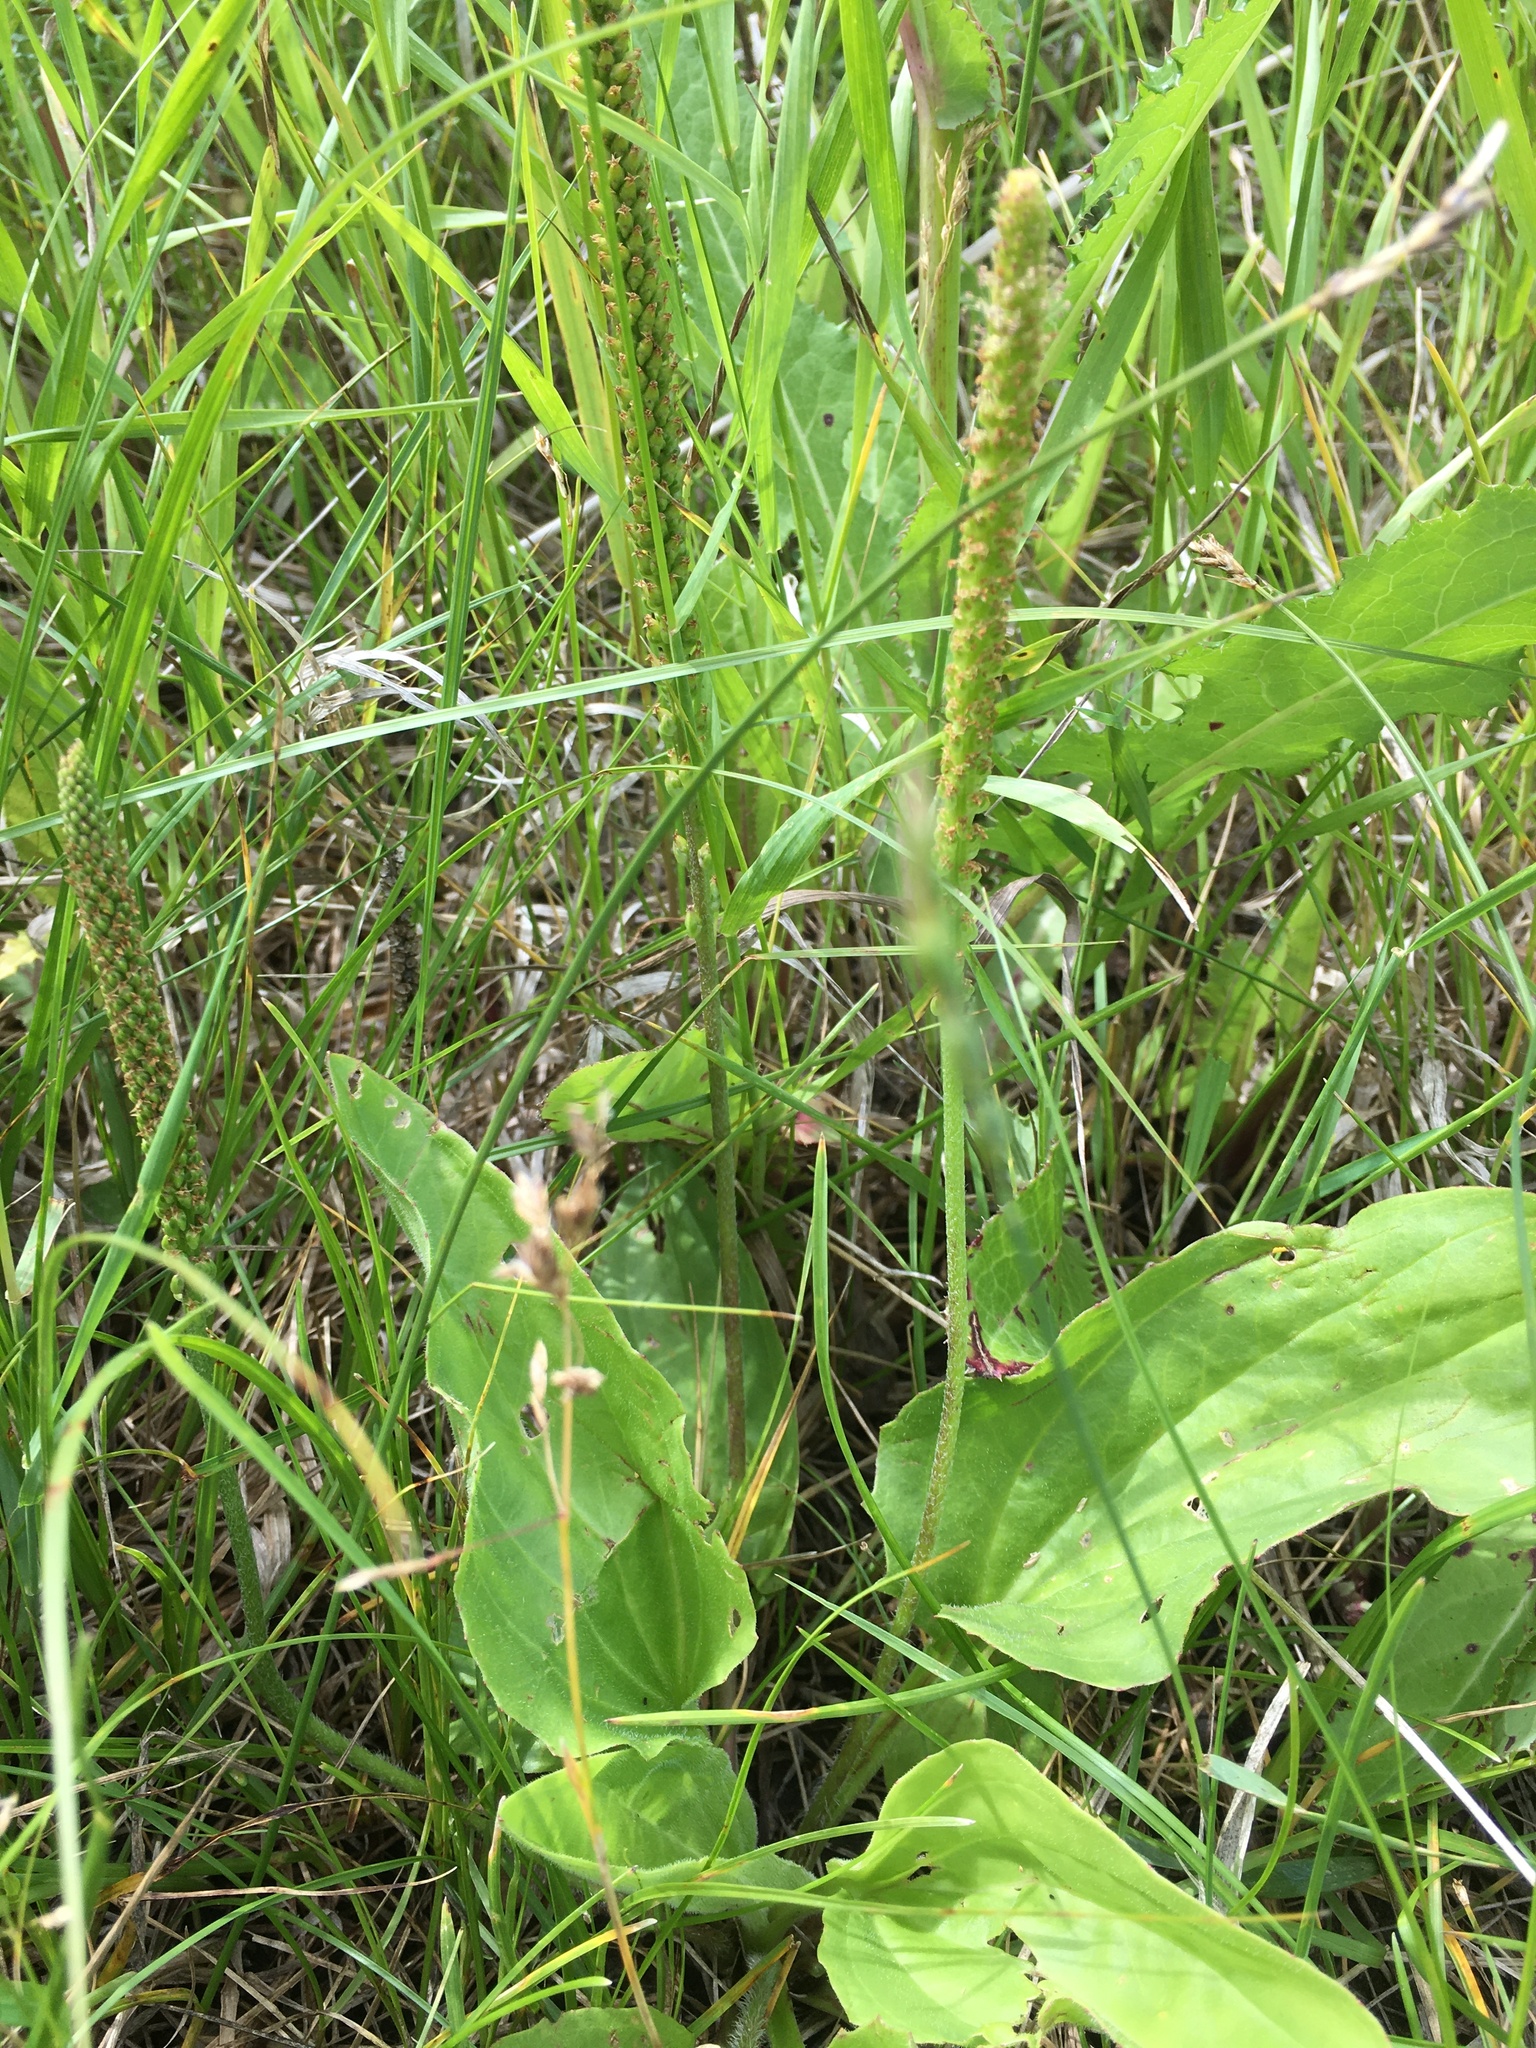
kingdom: Plantae
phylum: Tracheophyta
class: Magnoliopsida
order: Lamiales
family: Plantaginaceae
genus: Plantago
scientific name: Plantago major
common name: Common plantain
